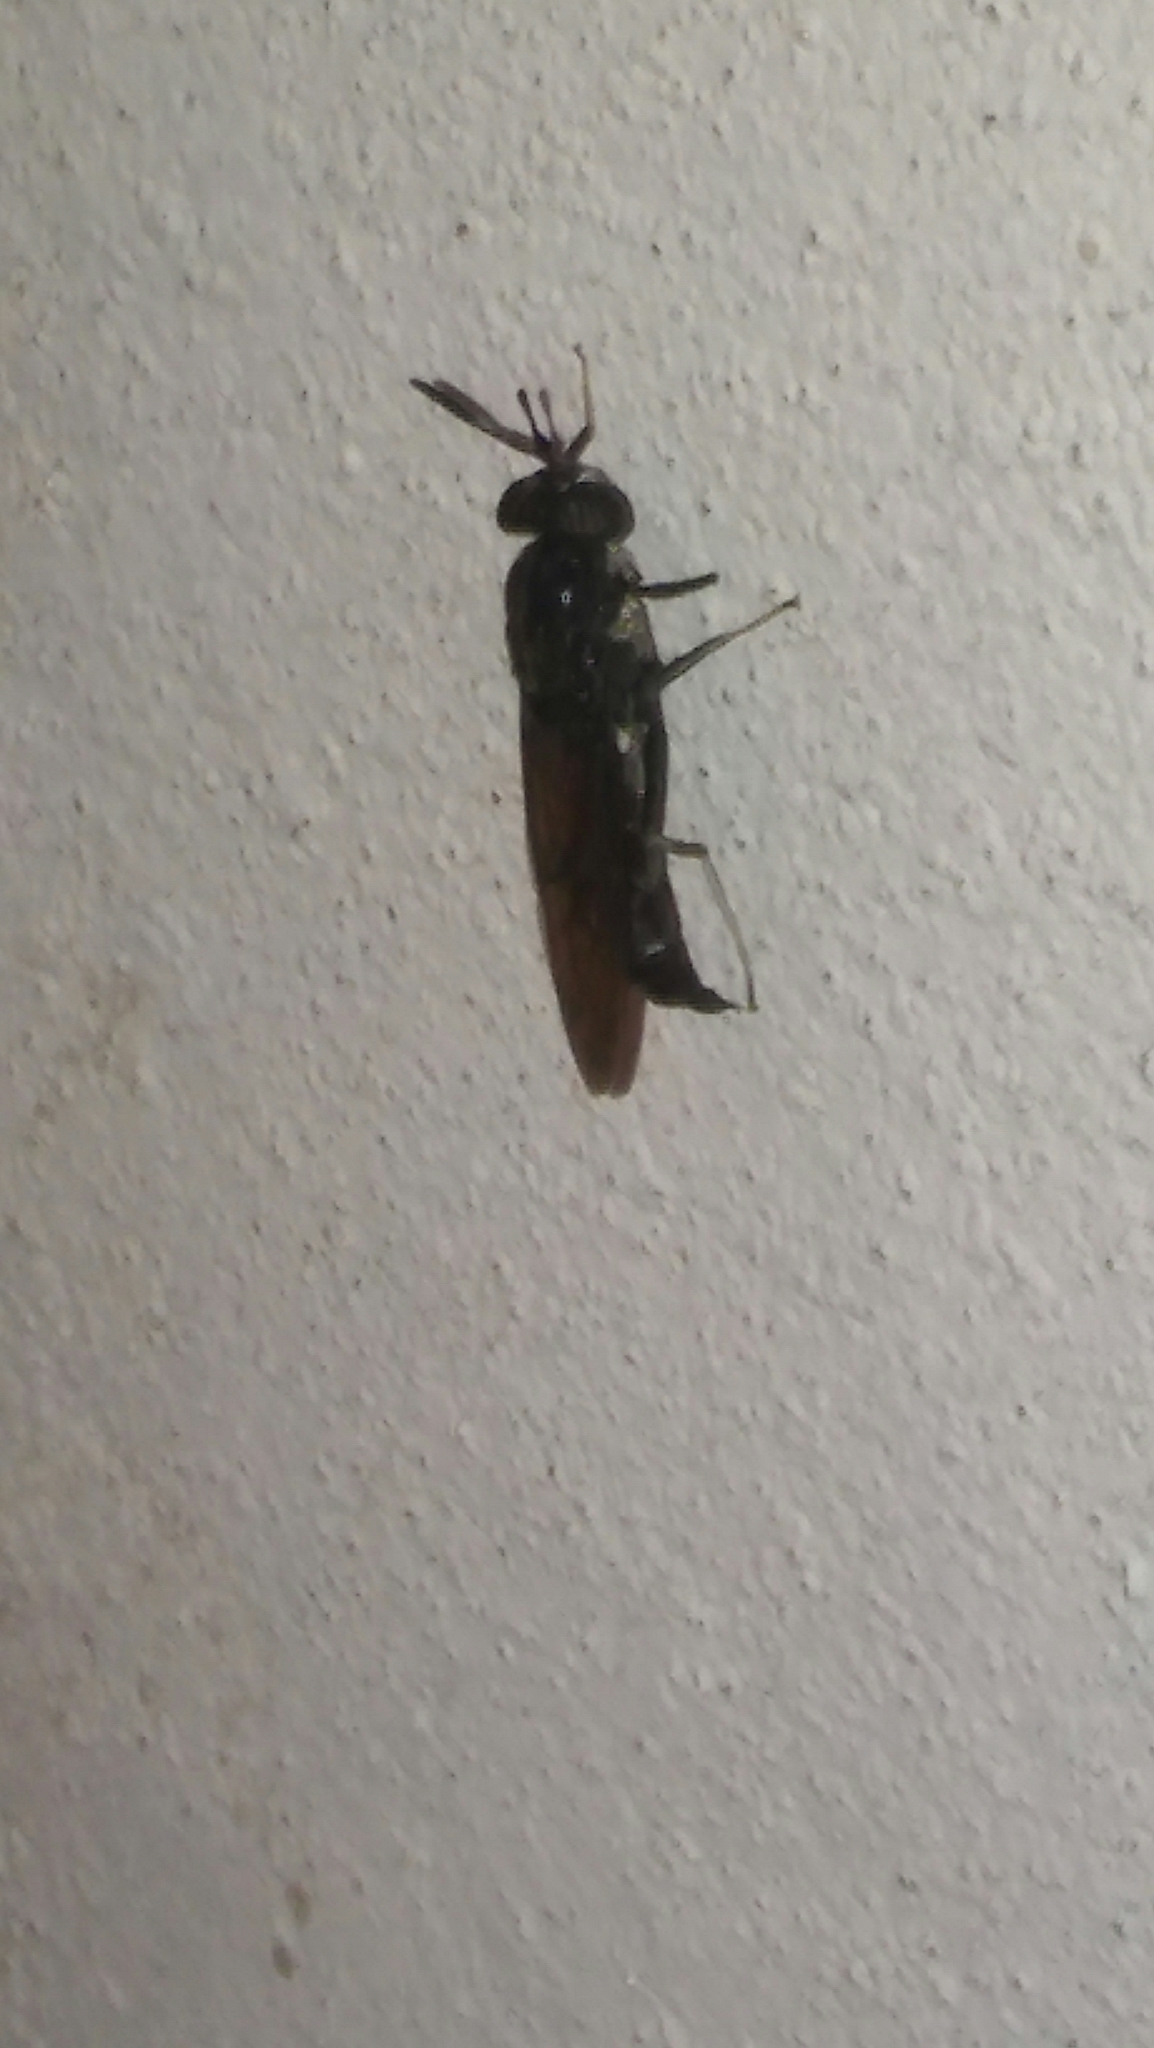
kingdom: Animalia
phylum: Arthropoda
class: Insecta
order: Diptera
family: Stratiomyidae
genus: Hermetia
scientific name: Hermetia illucens
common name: Black soldier fly
